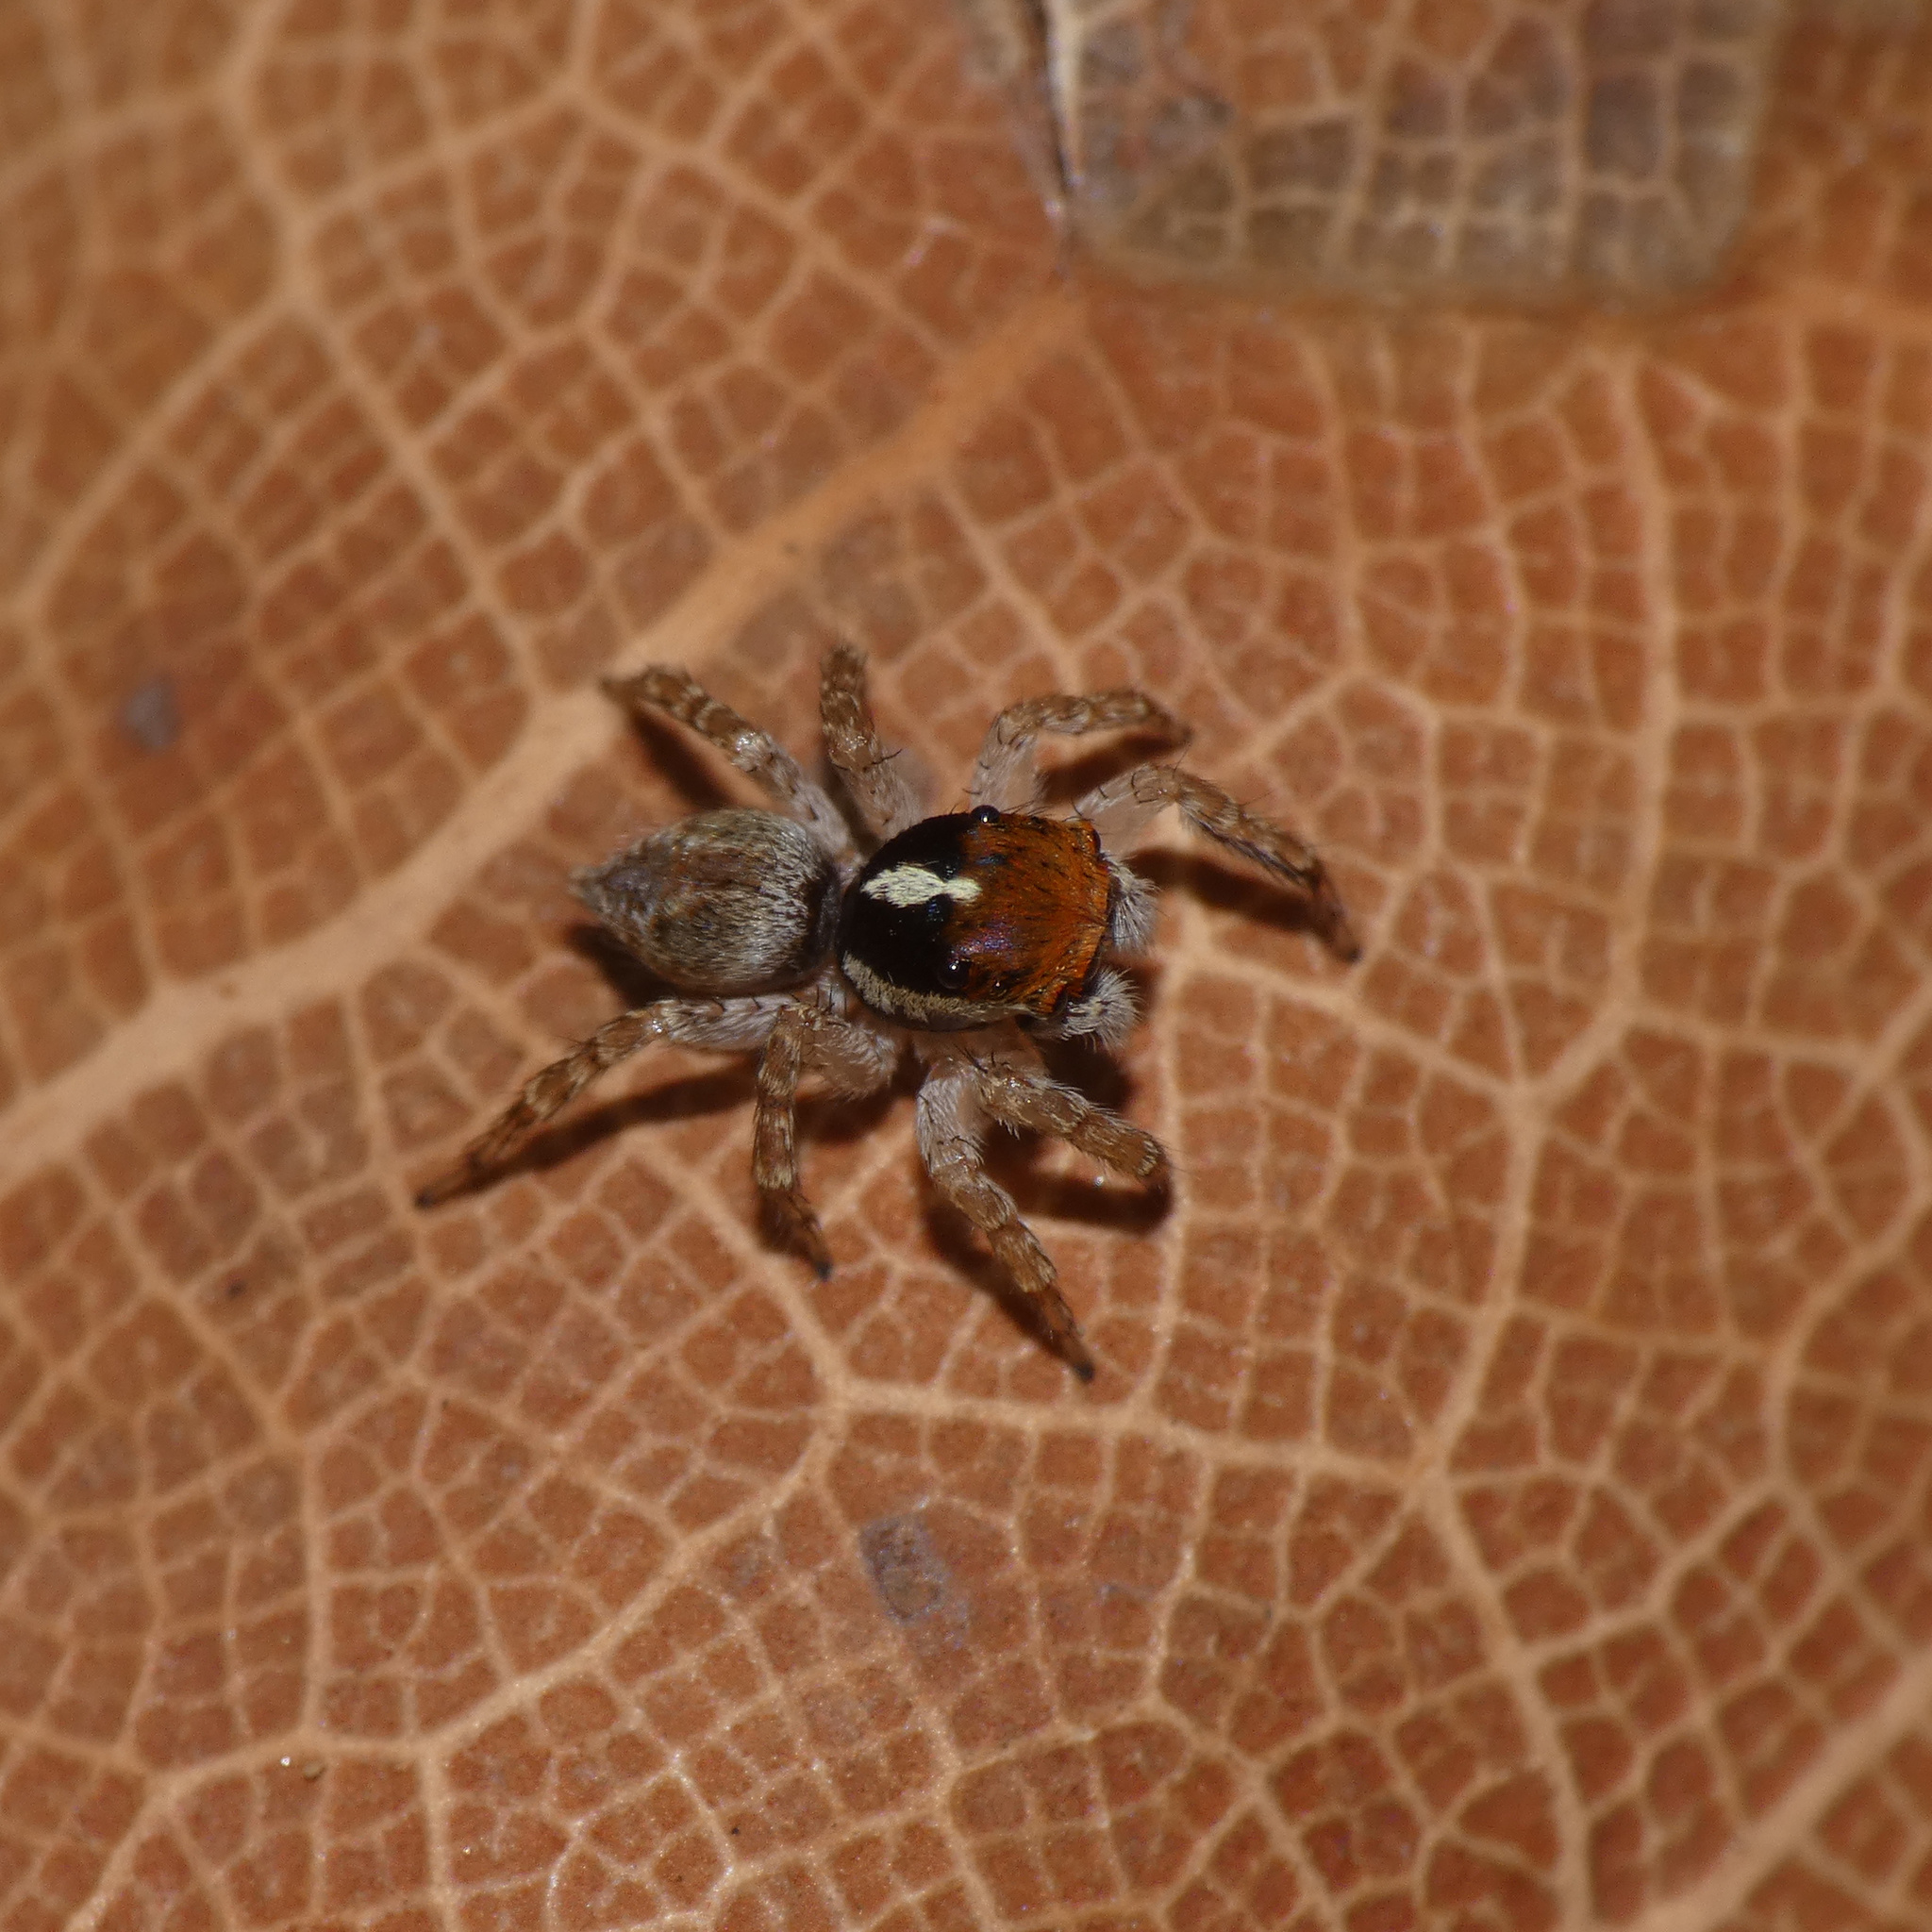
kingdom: Animalia
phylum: Arthropoda
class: Arachnida
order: Araneae
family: Salticidae
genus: Thyenula
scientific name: Thyenula munda
